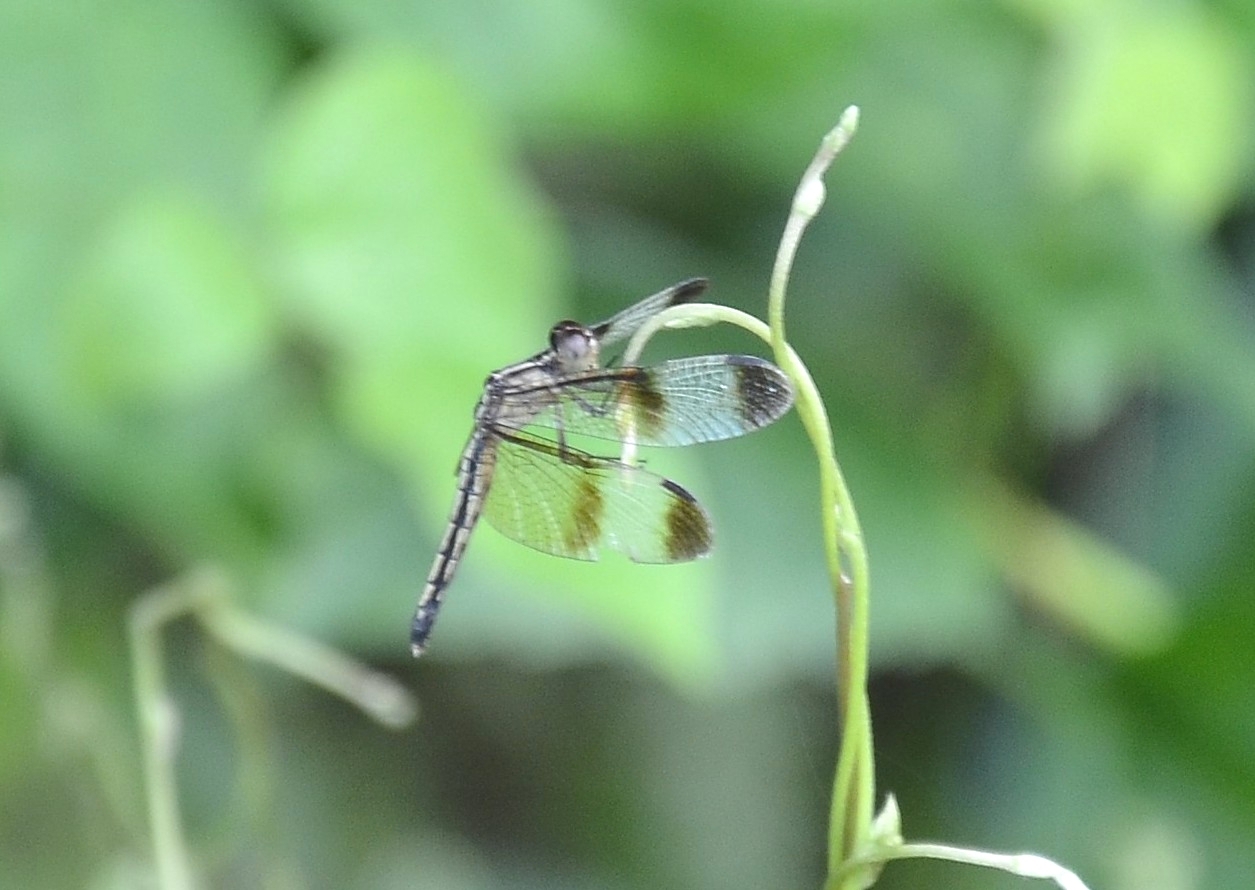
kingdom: Animalia
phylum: Arthropoda
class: Insecta
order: Odonata
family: Libellulidae
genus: Neurothemis
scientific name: Neurothemis tullia
